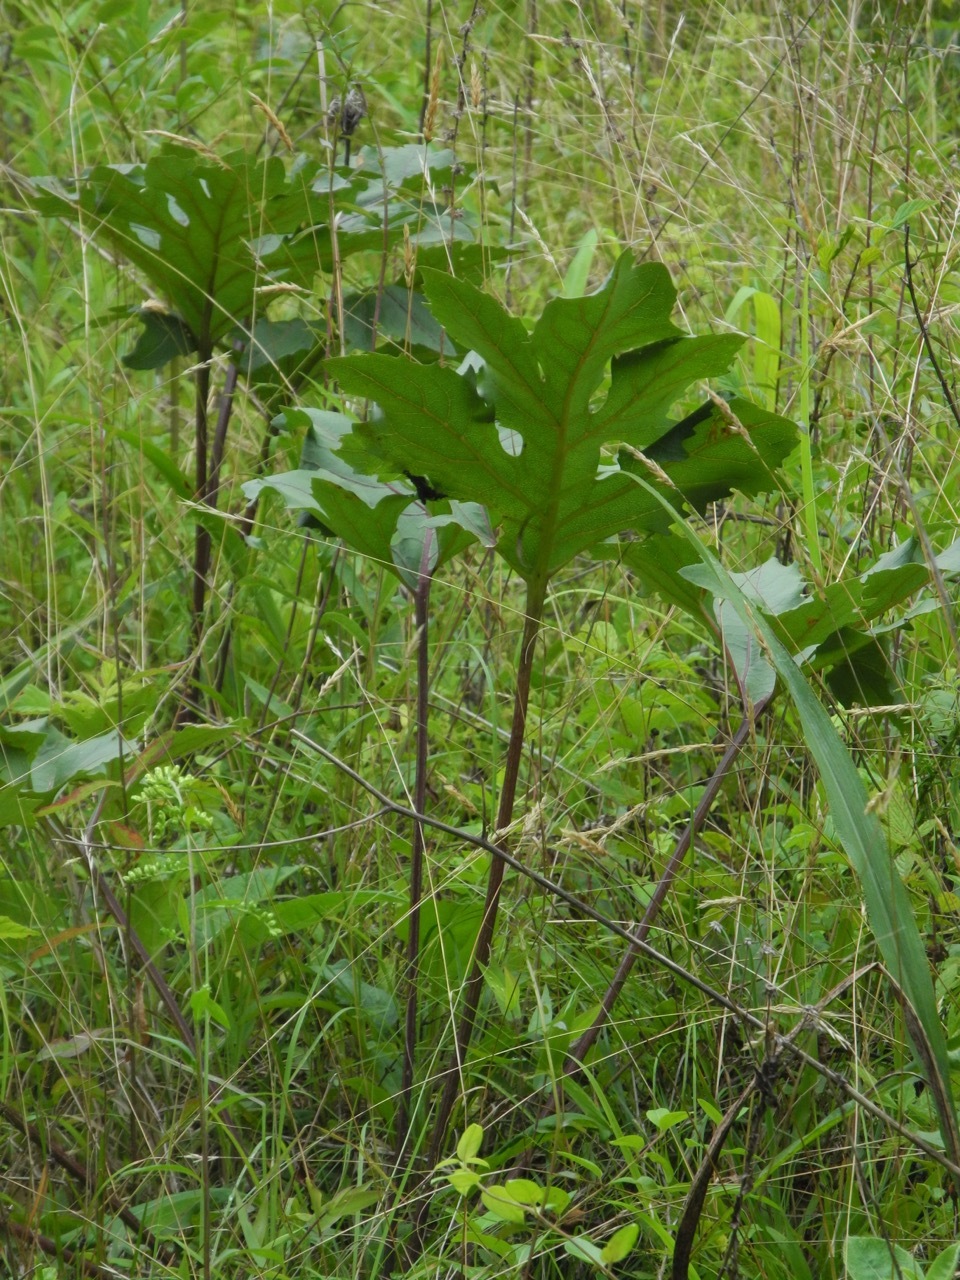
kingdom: Plantae
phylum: Tracheophyta
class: Magnoliopsida
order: Asterales
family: Asteraceae
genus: Silphium
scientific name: Silphium compositum
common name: Lesser basal-leaf rosinweed
